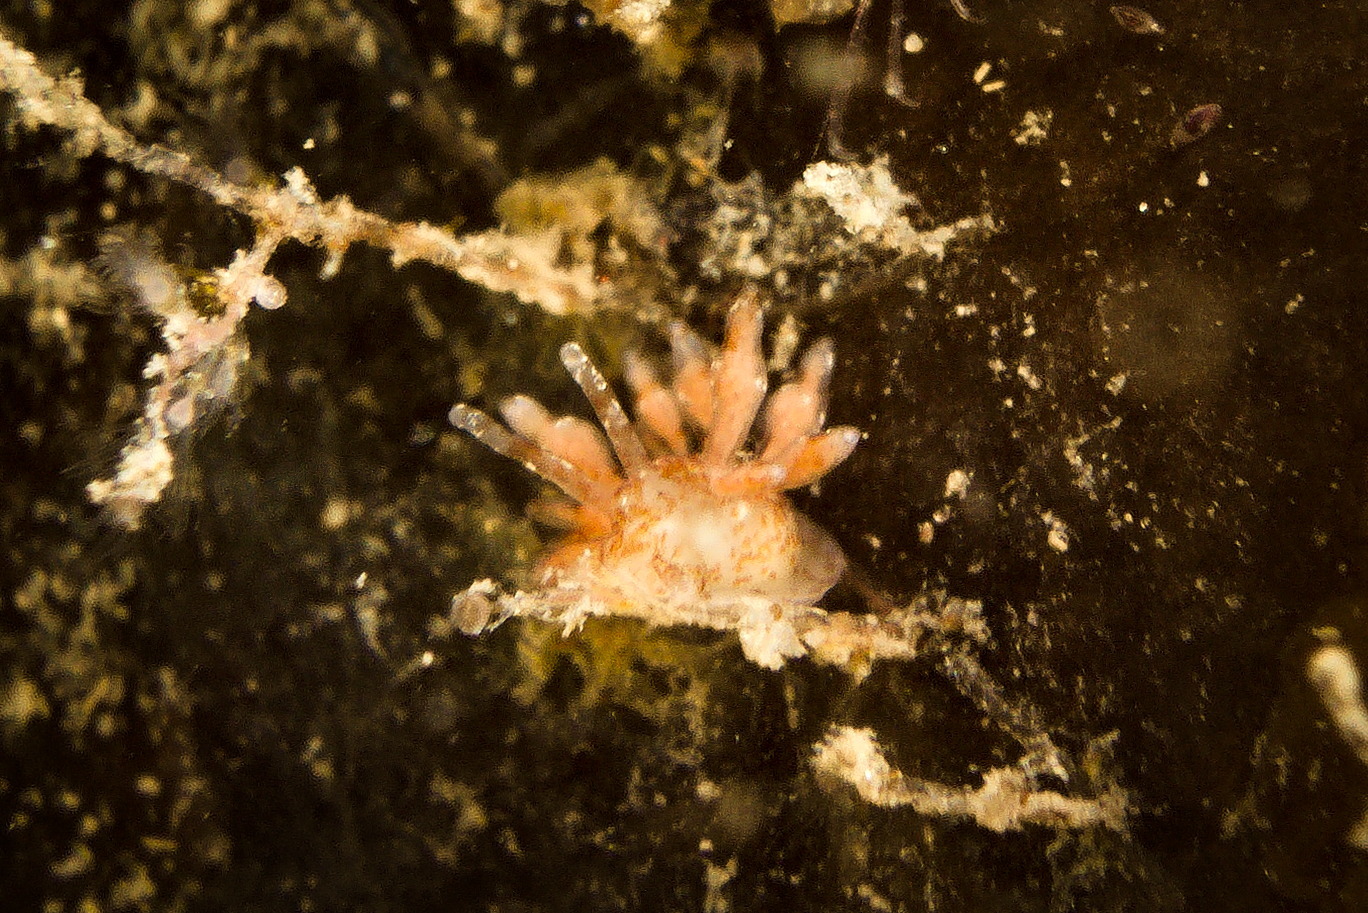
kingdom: Animalia
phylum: Mollusca
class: Gastropoda
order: Nudibranchia
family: Eubranchidae
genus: Eubranchus
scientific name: Eubranchus exiguus
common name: Balloon aeolis
